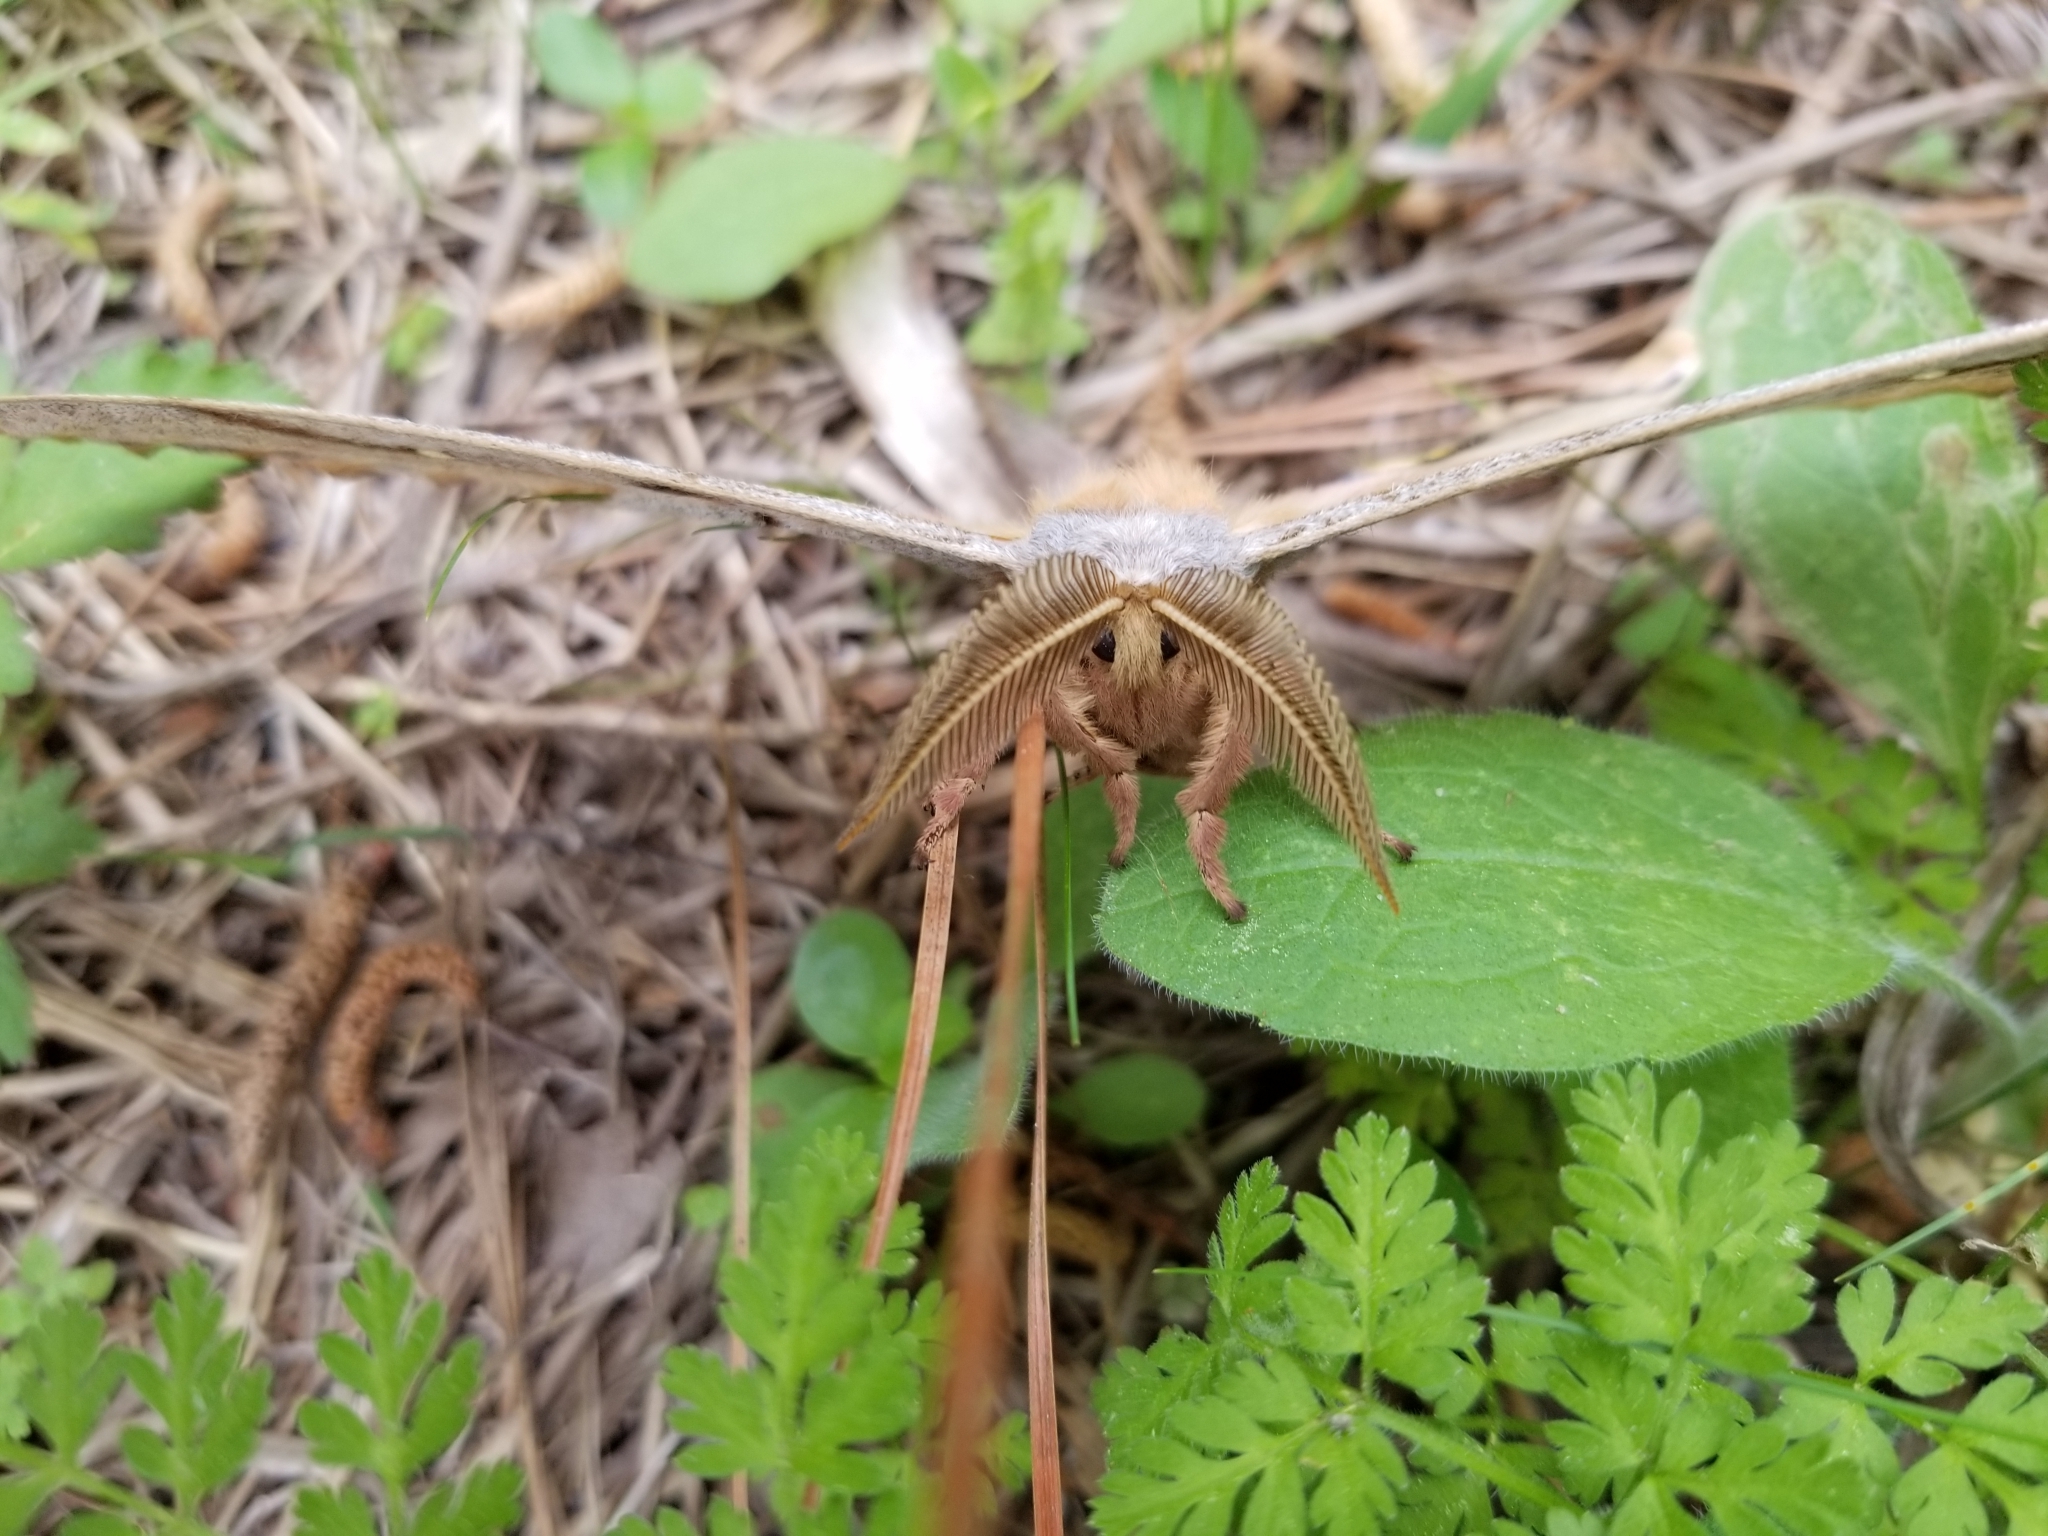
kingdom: Animalia
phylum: Arthropoda
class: Insecta
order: Lepidoptera
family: Saturniidae
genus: Antheraea
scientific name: Antheraea polyphemus
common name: Polyphemus moth
